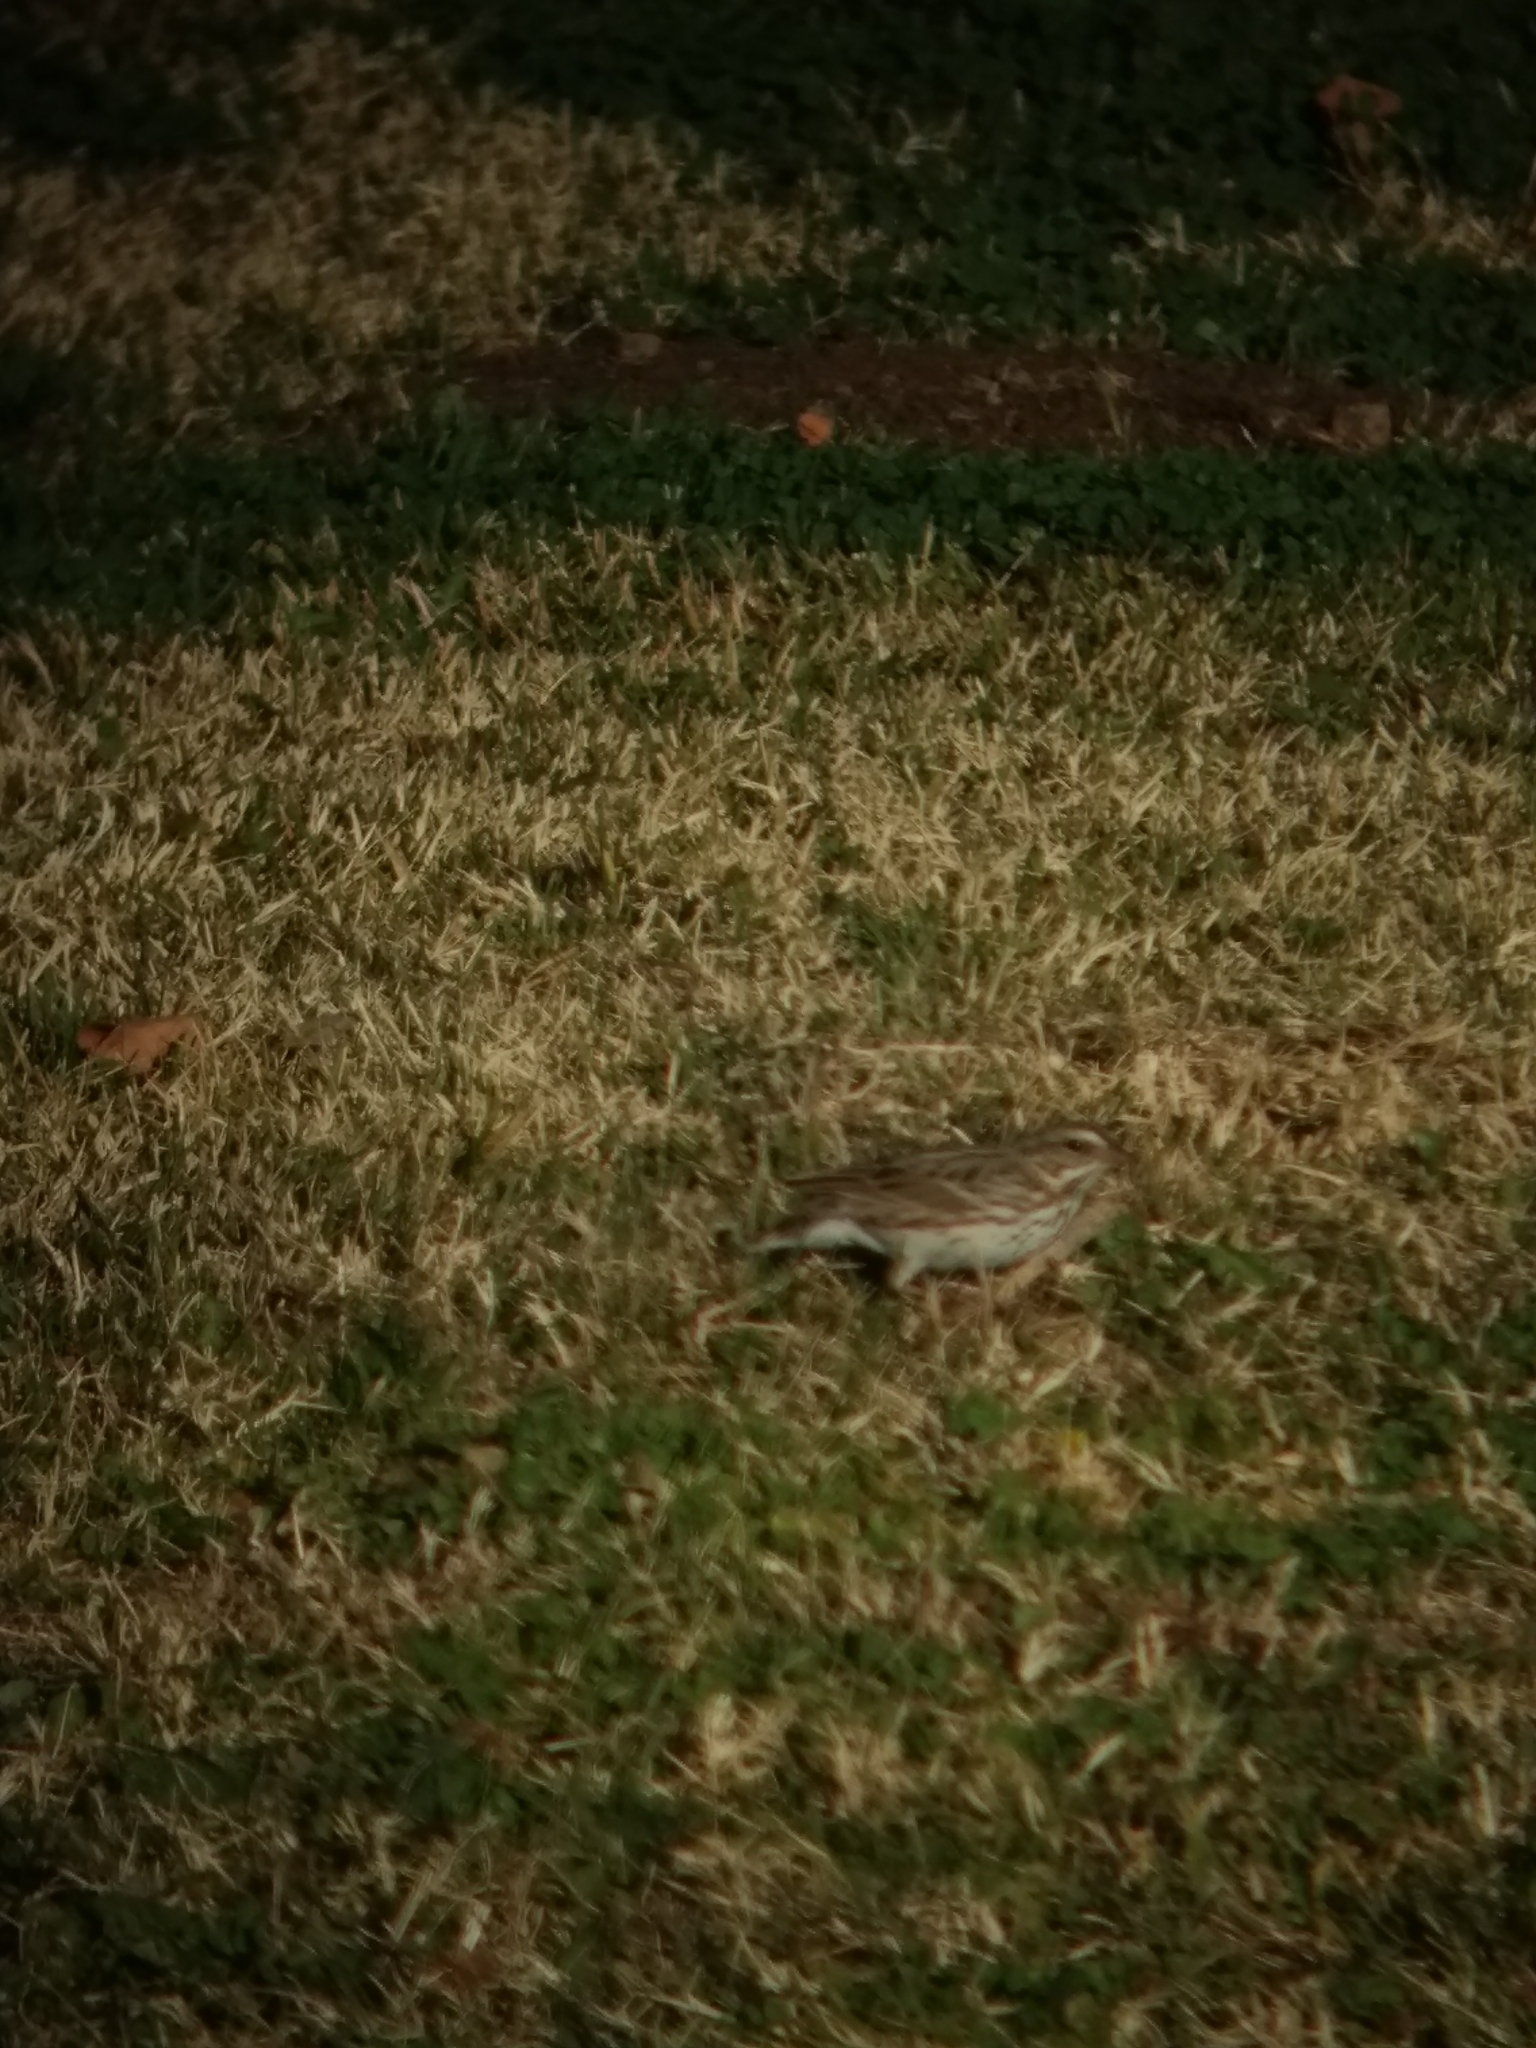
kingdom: Animalia
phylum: Chordata
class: Aves
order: Passeriformes
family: Passerellidae
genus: Passerculus
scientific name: Passerculus sandwichensis
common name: Savannah sparrow
